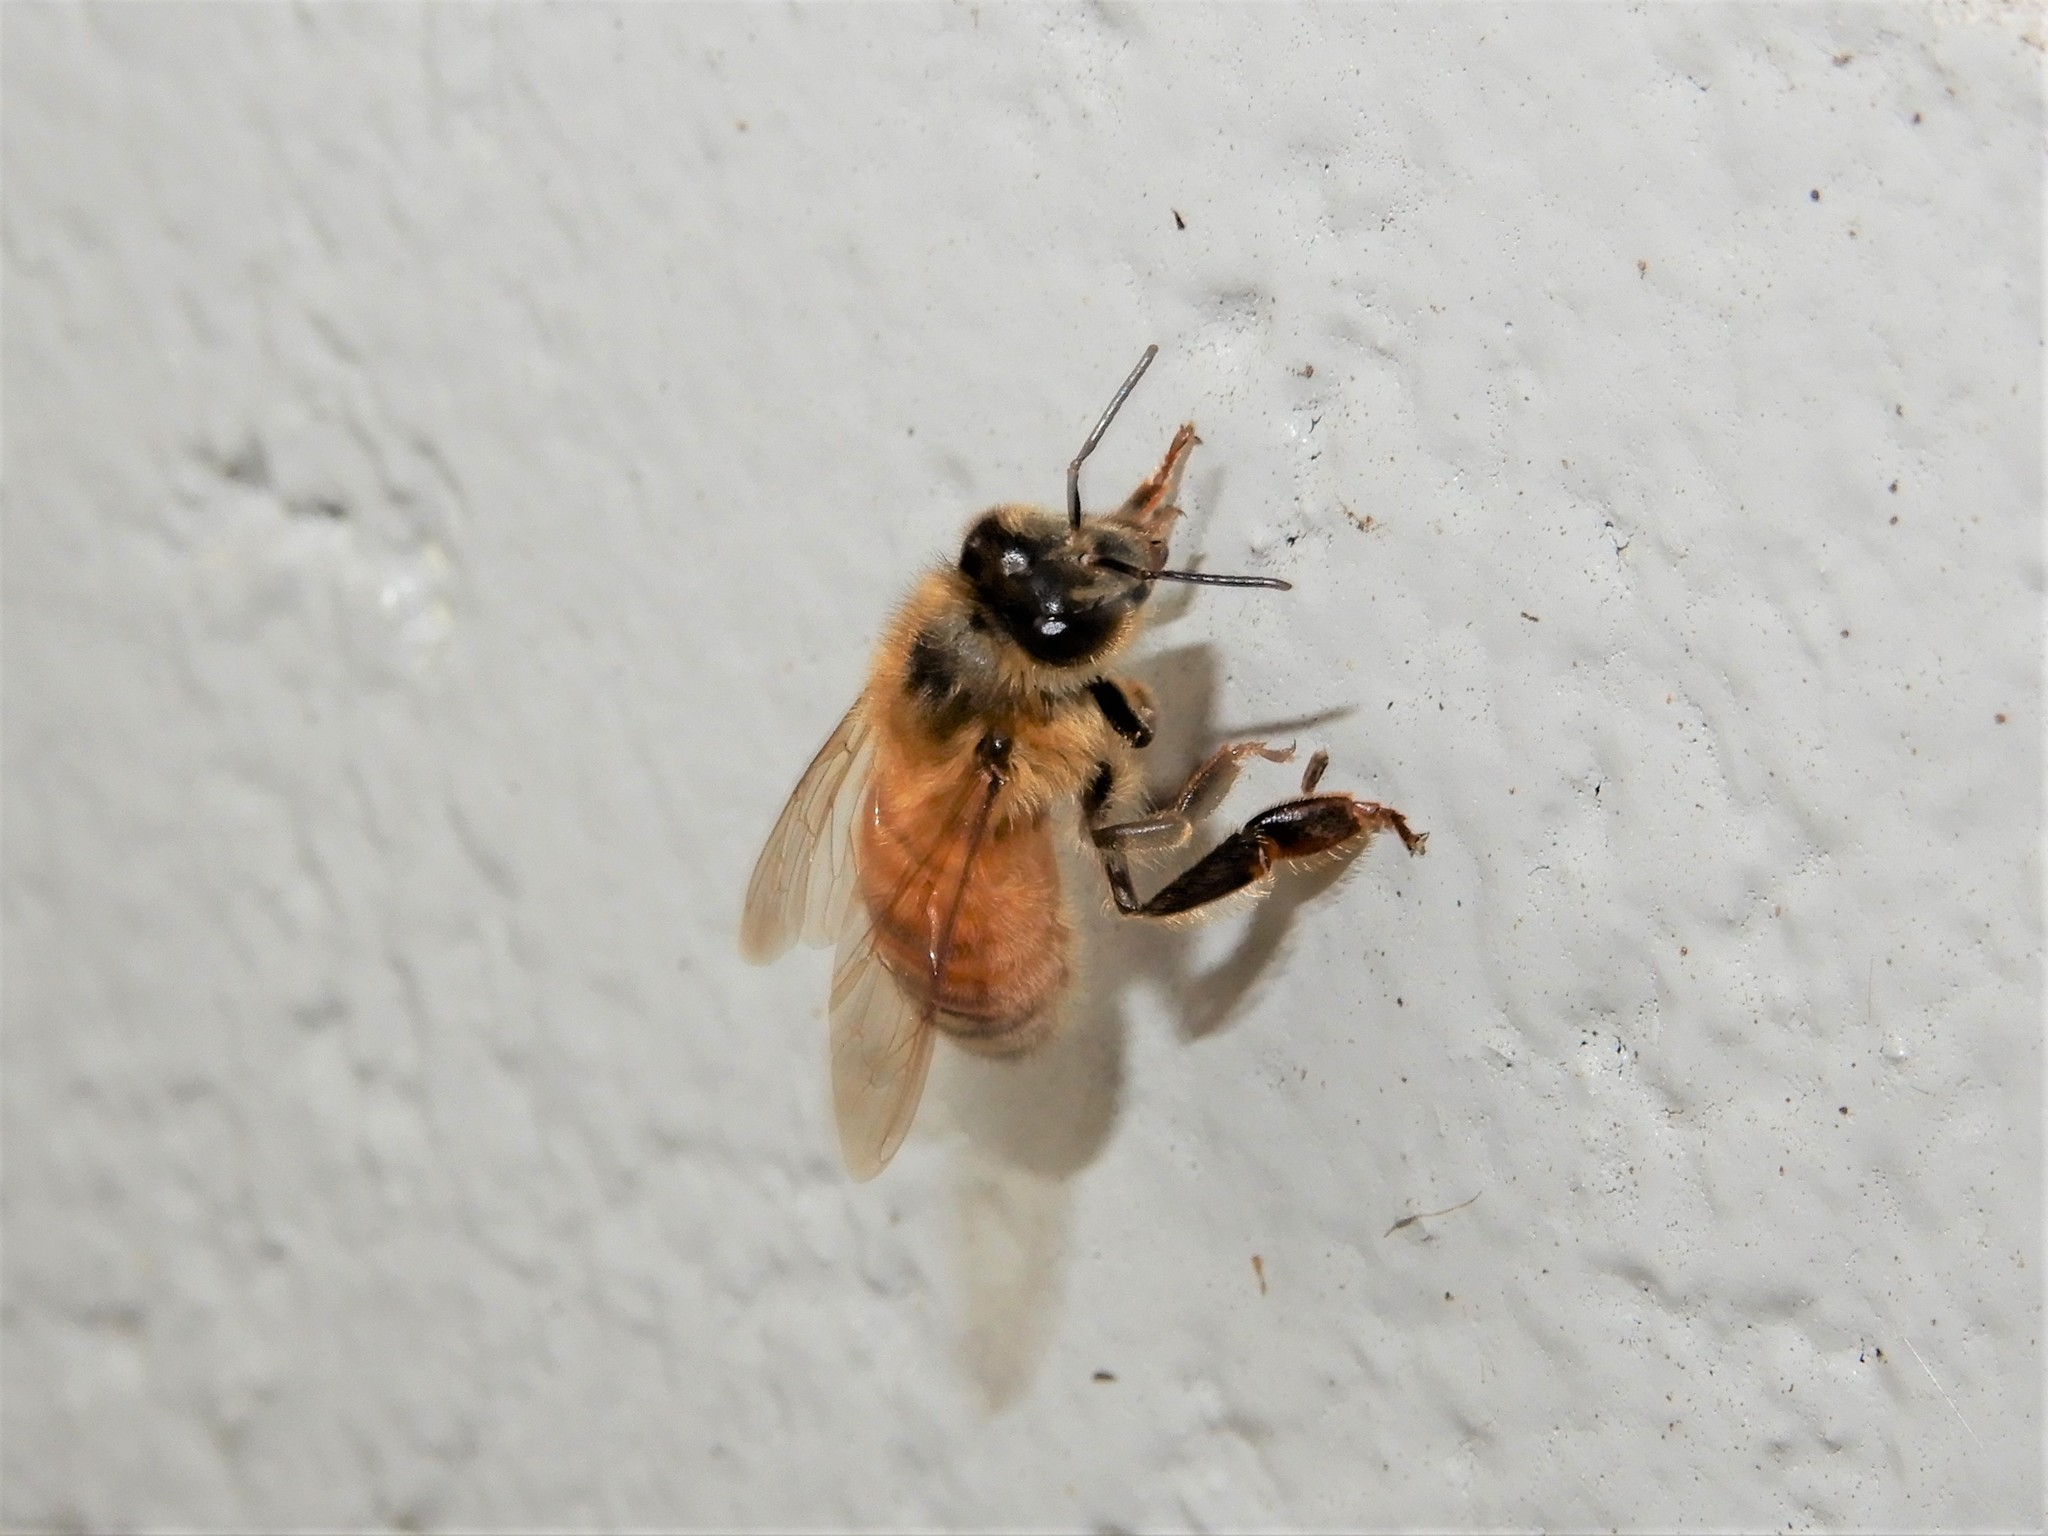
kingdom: Animalia
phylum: Arthropoda
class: Insecta
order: Hymenoptera
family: Apidae
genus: Apis
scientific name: Apis mellifera
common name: Honey bee
